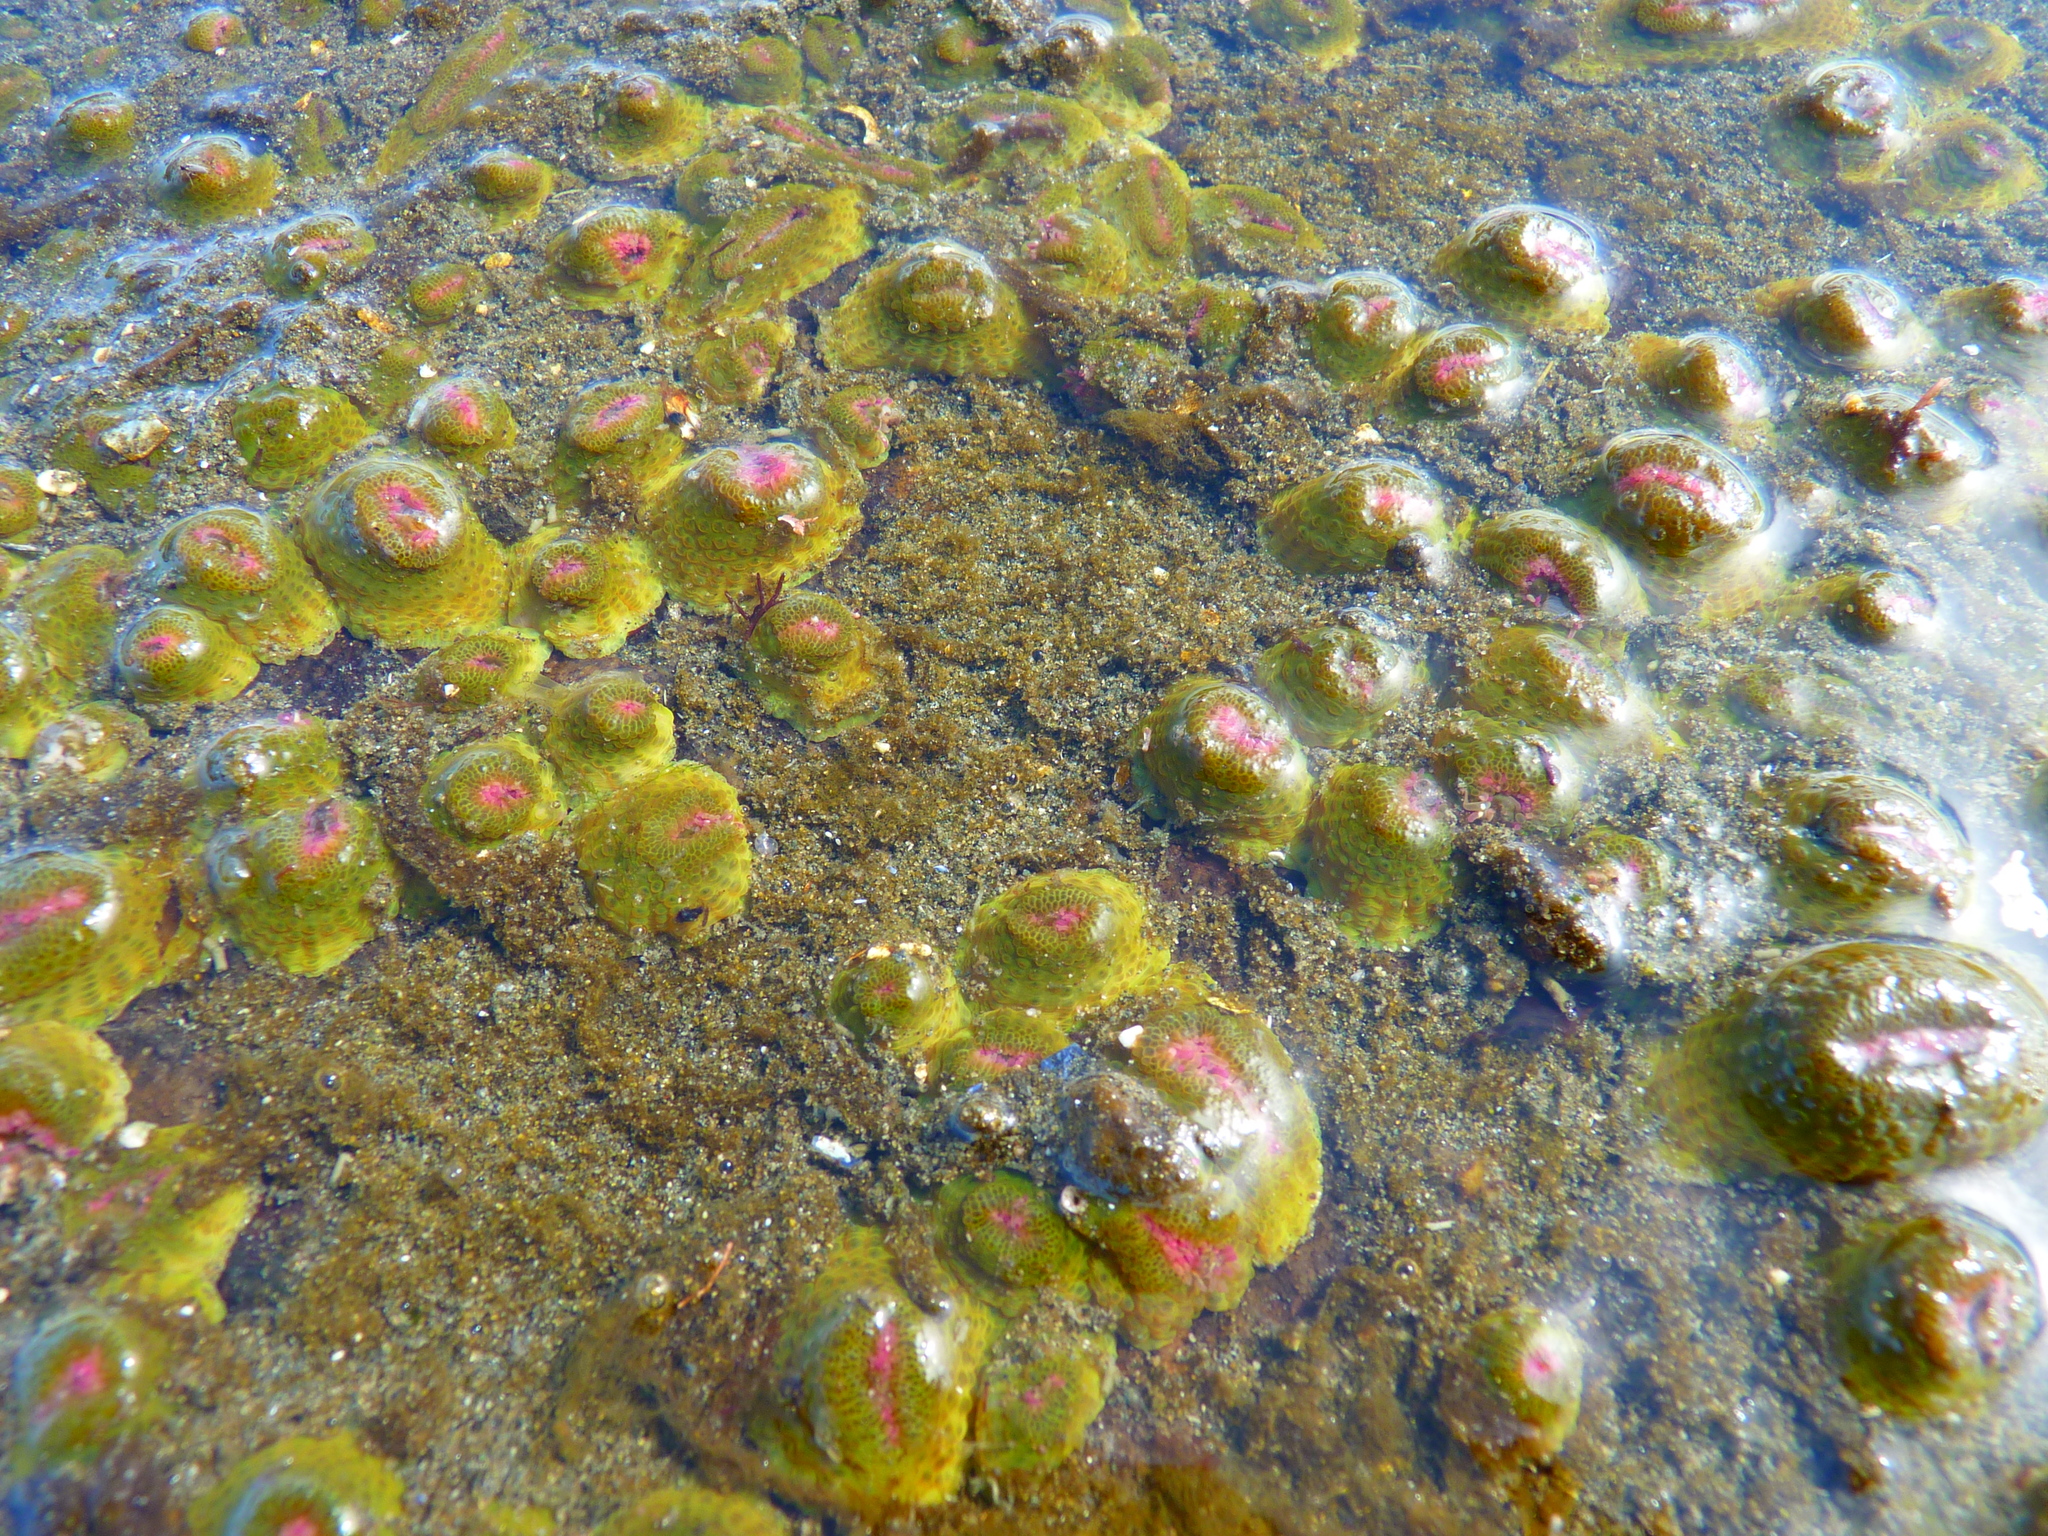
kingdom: Animalia
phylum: Cnidaria
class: Anthozoa
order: Actiniaria
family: Actiniidae
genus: Anthopleura
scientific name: Anthopleura elegantissima
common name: Clonal anemone
